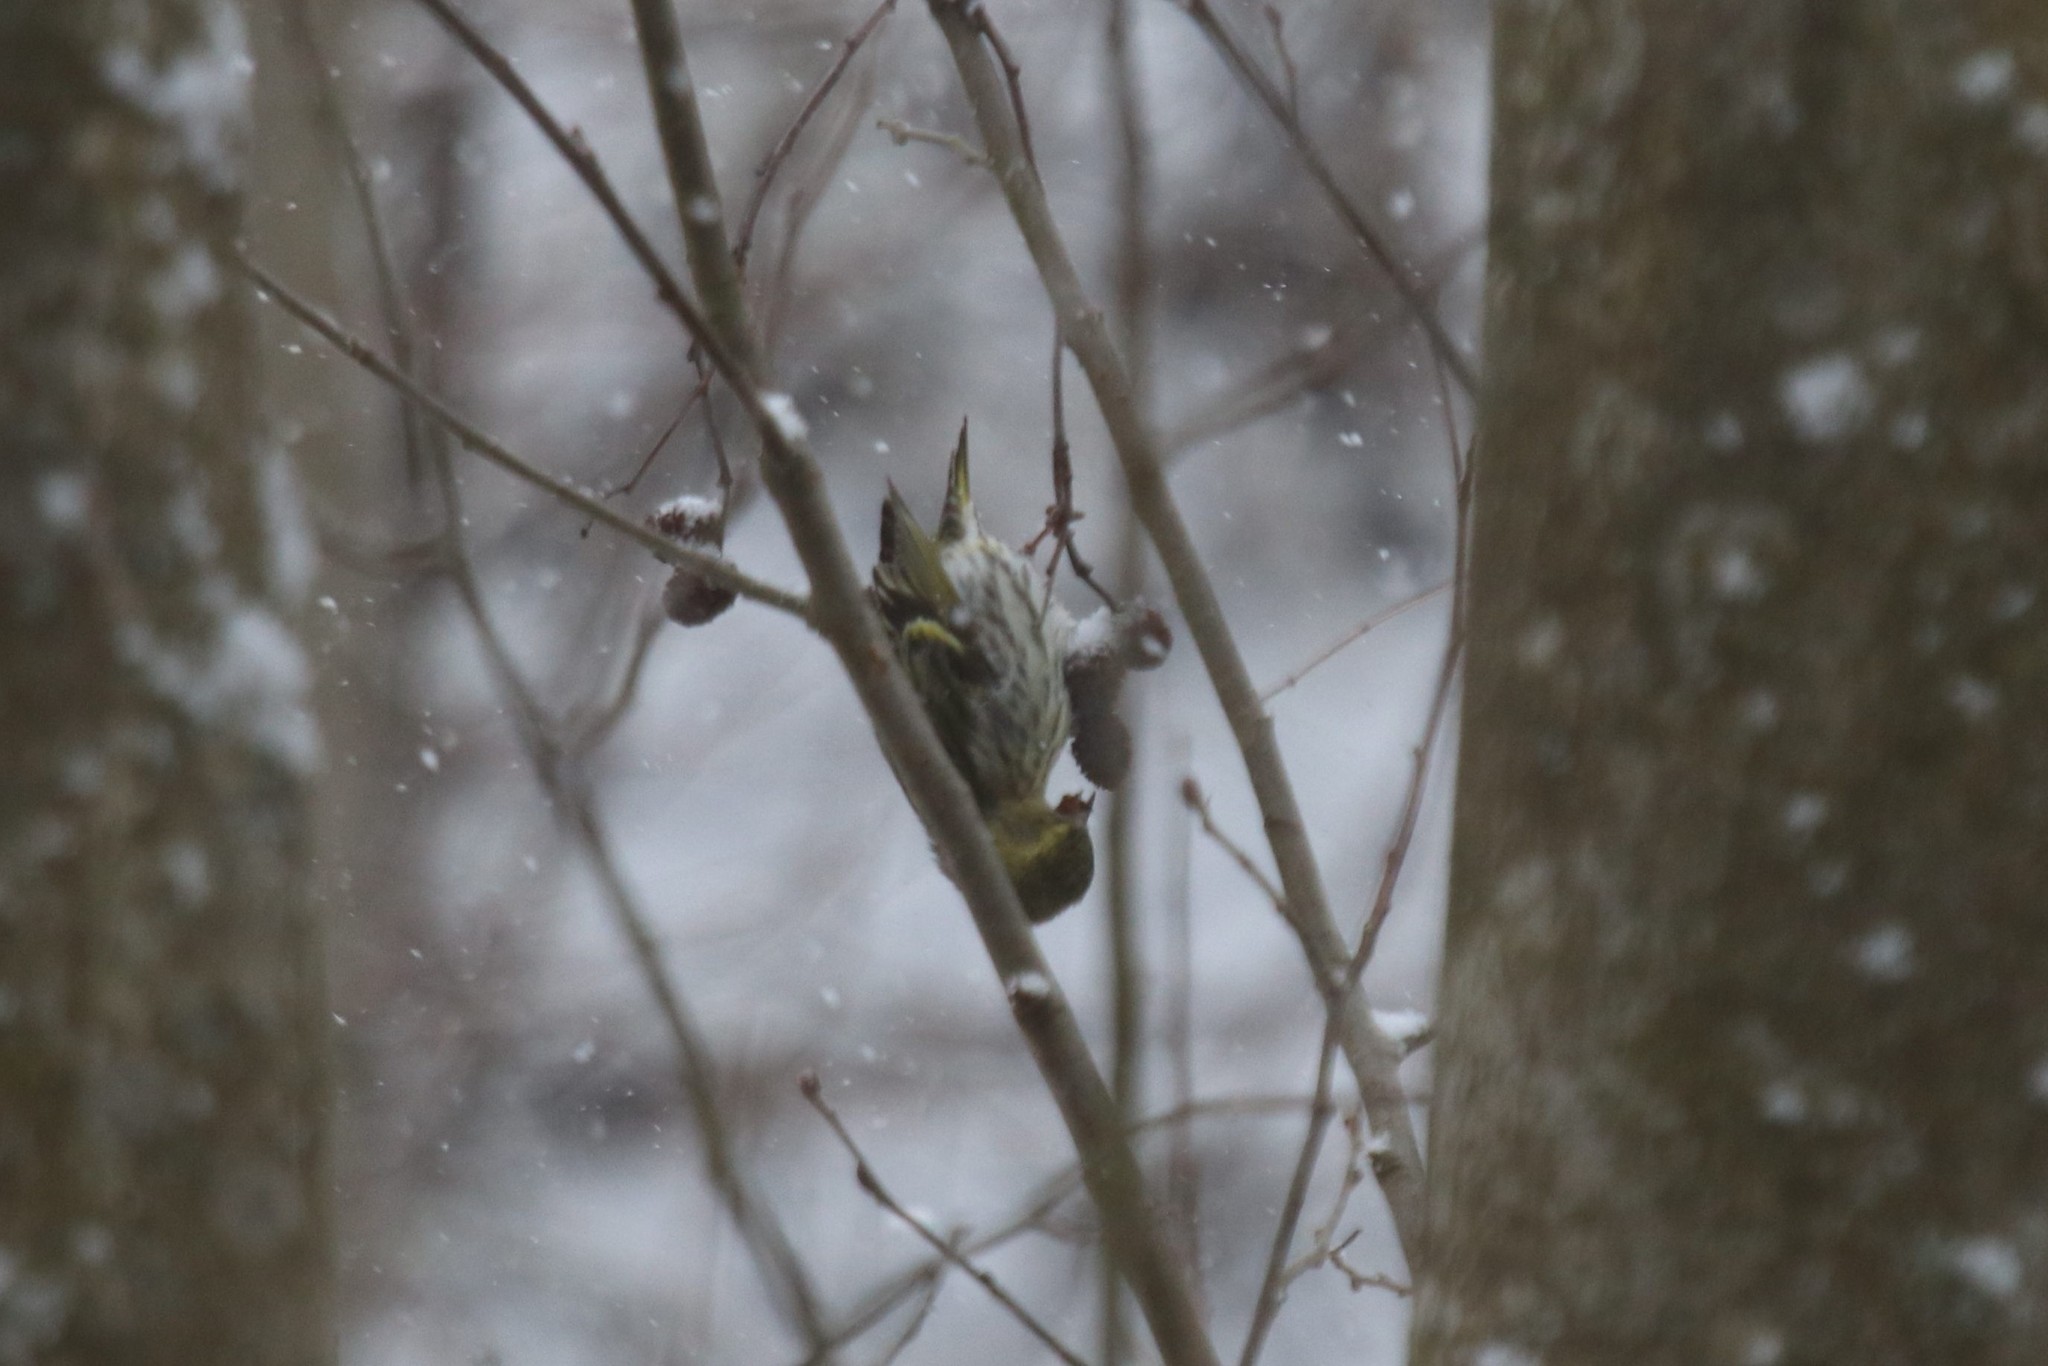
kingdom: Animalia
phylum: Chordata
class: Aves
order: Passeriformes
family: Fringillidae
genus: Spinus
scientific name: Spinus spinus
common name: Eurasian siskin
